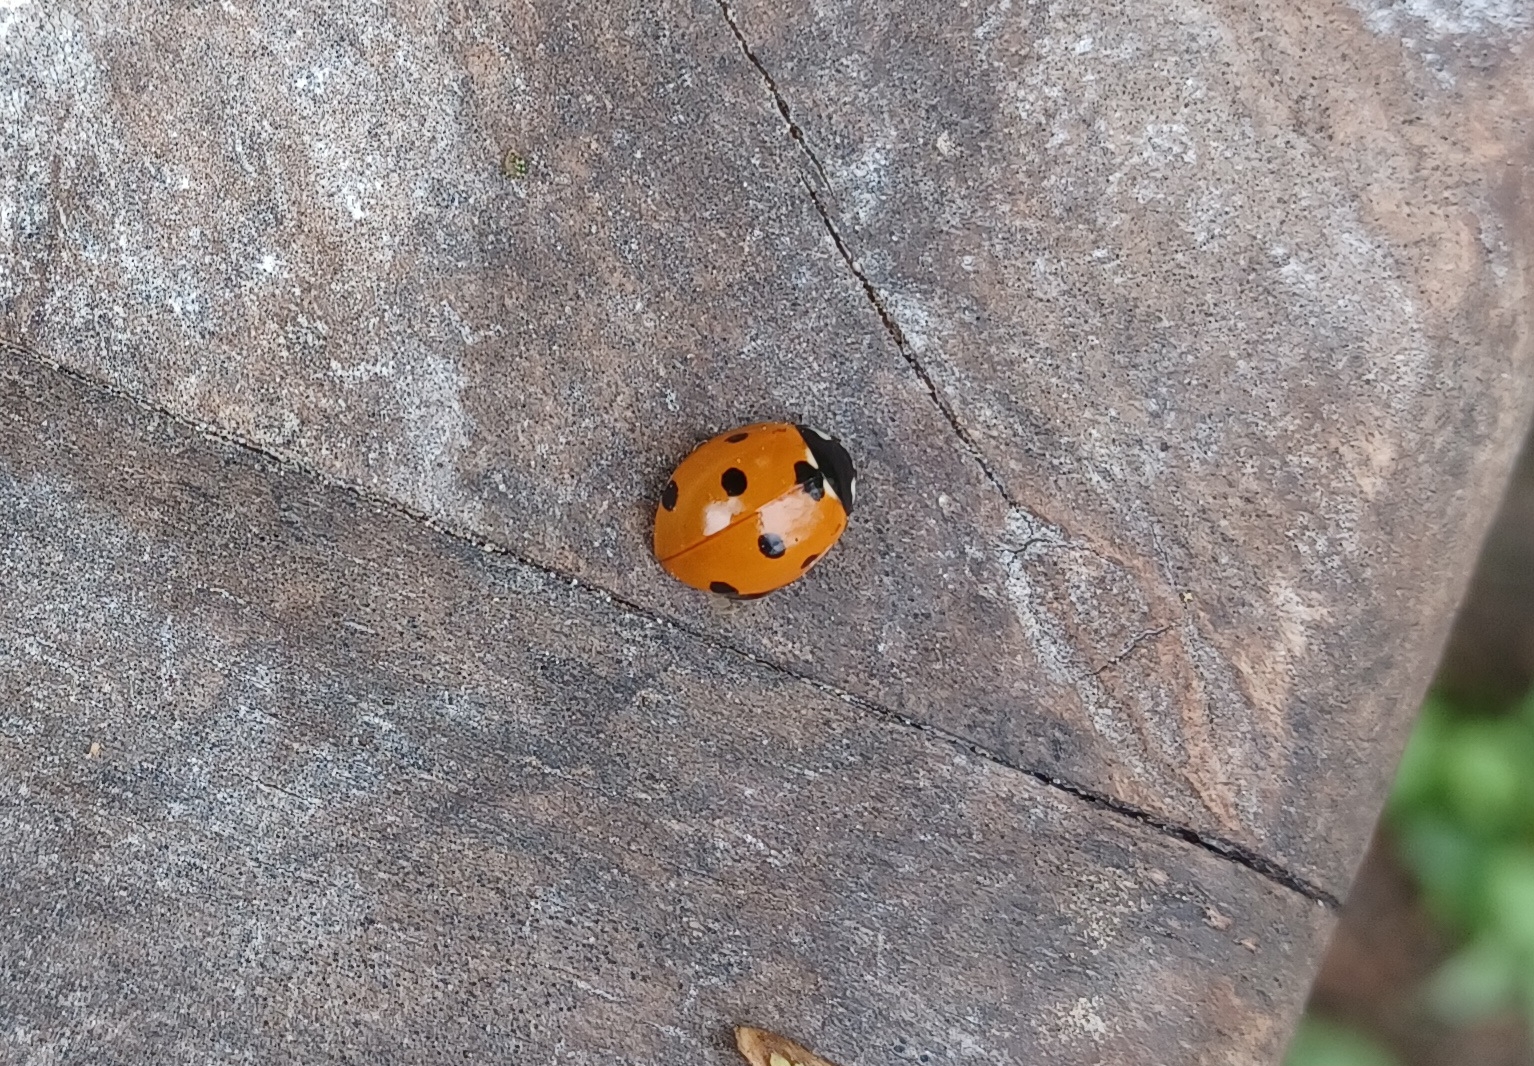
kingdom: Animalia
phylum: Arthropoda
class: Insecta
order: Coleoptera
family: Coccinellidae
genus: Coccinella
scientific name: Coccinella septempunctata
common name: Sevenspotted lady beetle
